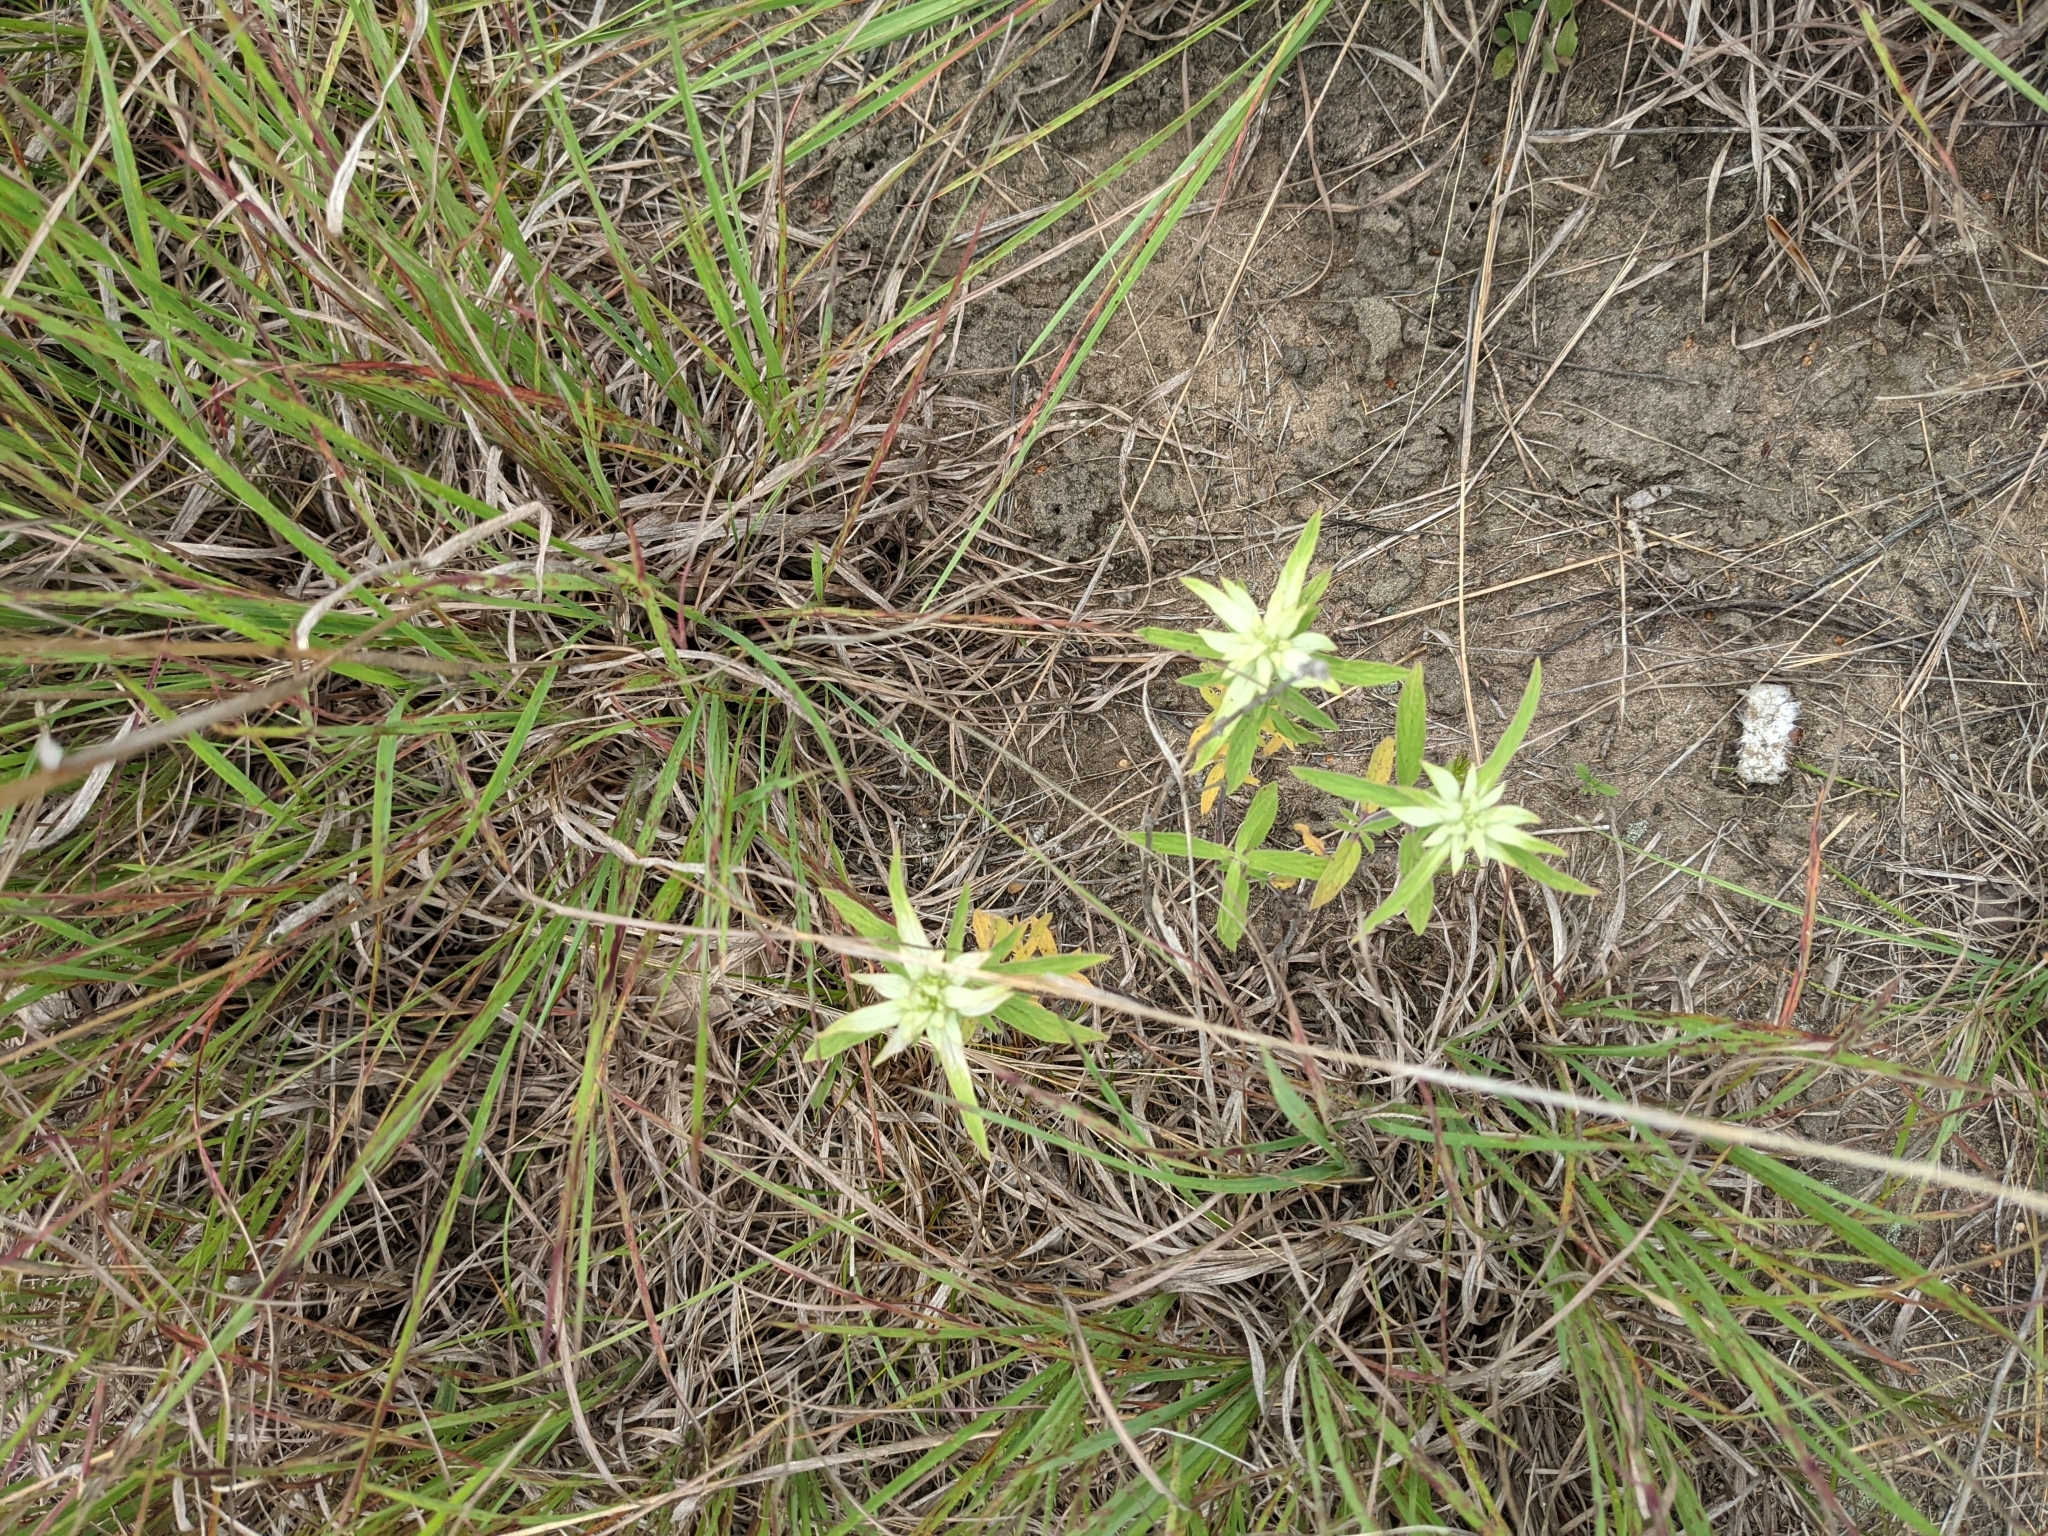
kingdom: Plantae
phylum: Tracheophyta
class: Magnoliopsida
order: Lamiales
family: Lamiaceae
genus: Monarda
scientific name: Monarda punctata
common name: Dotted monarda
